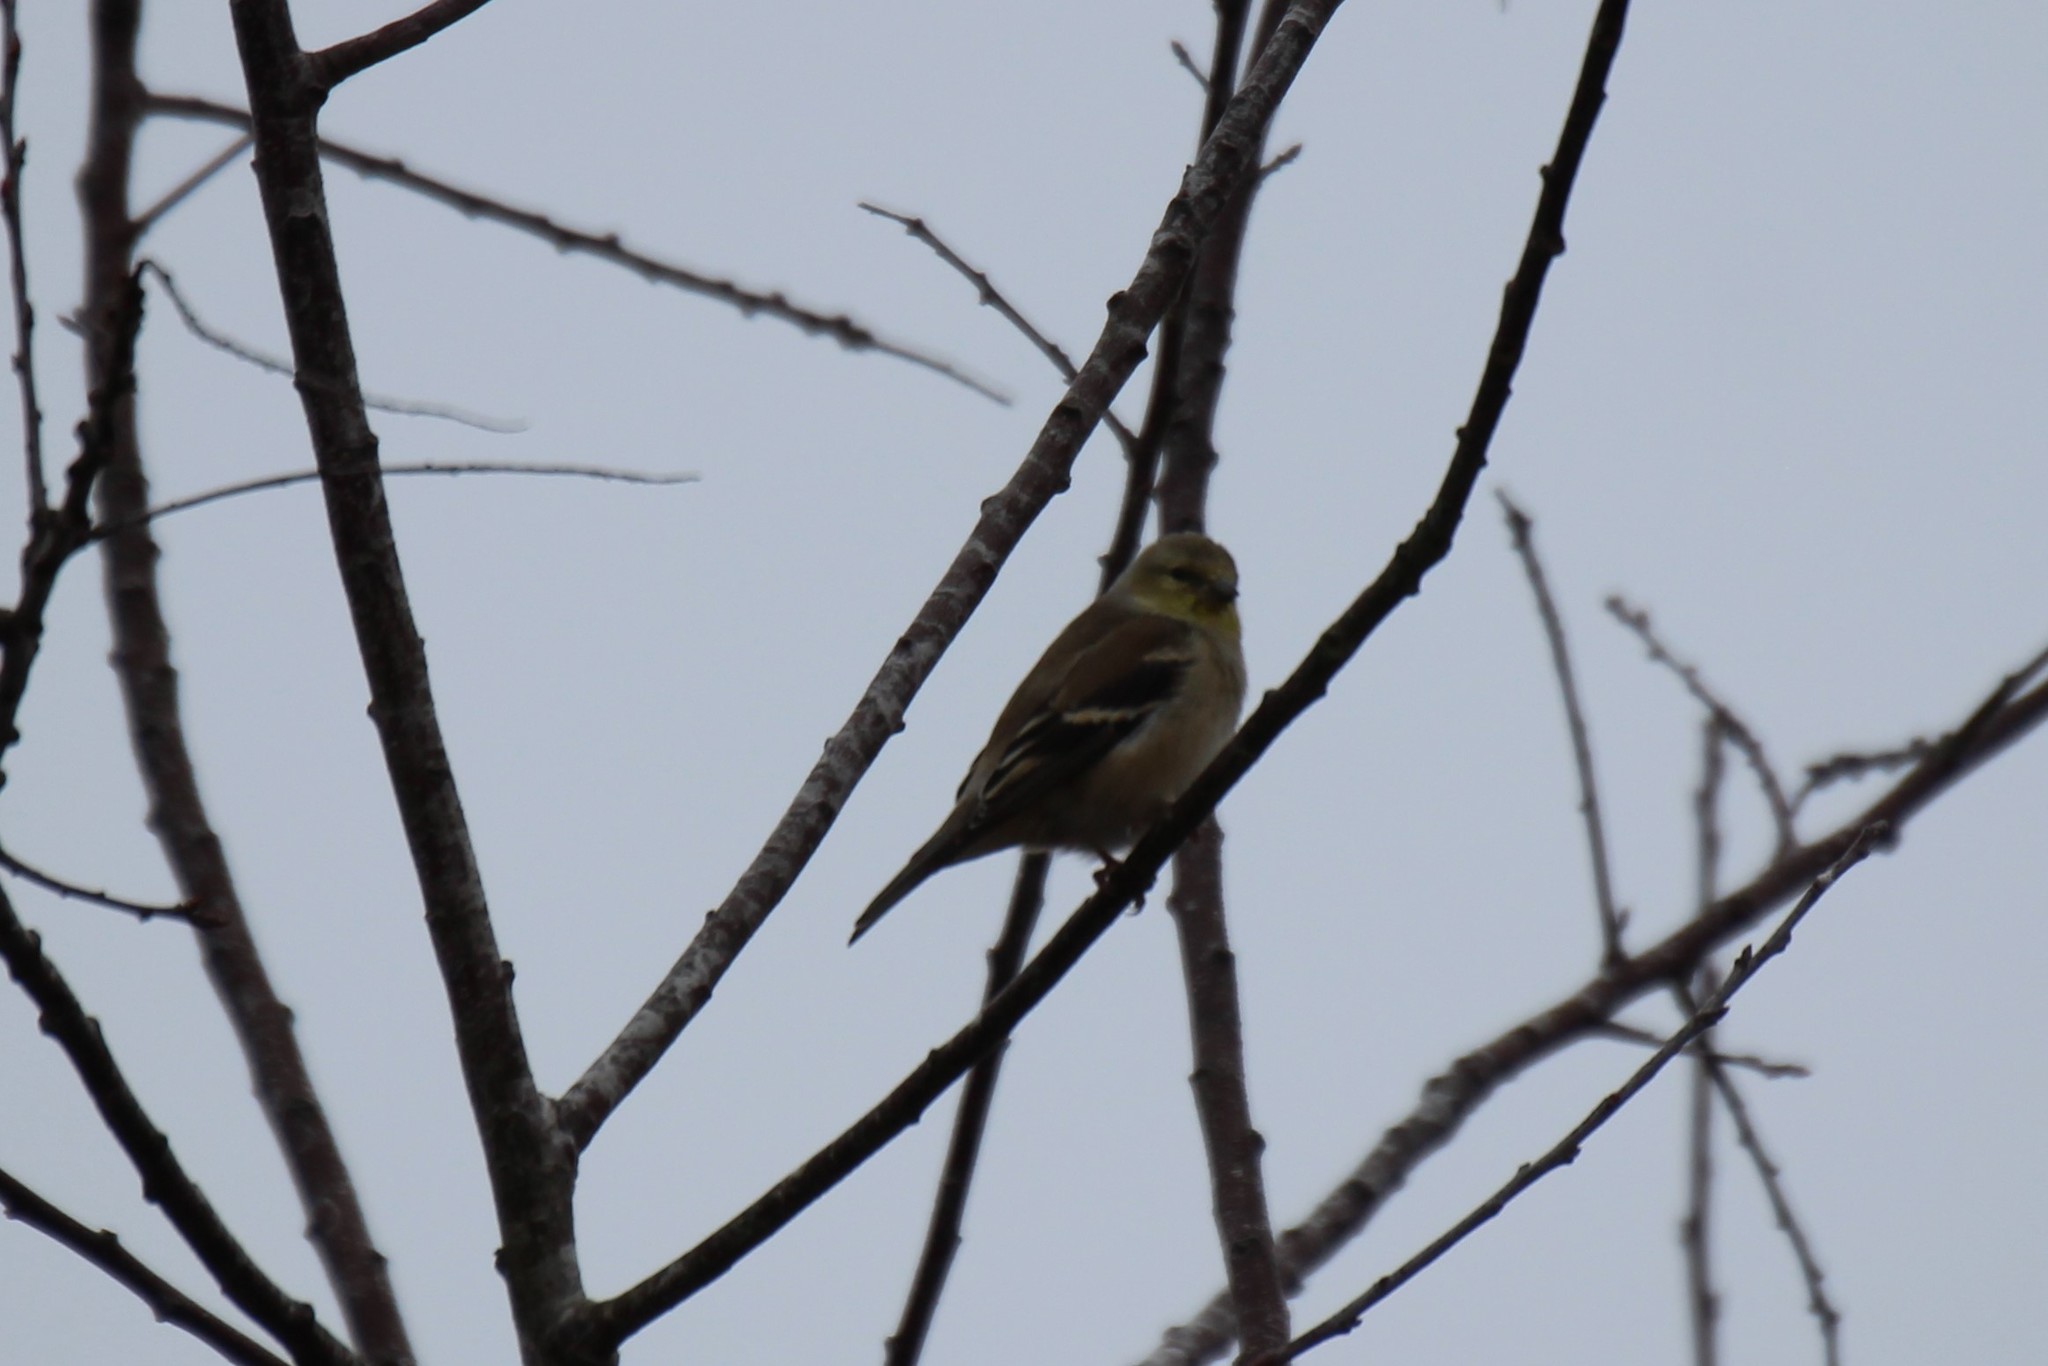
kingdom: Animalia
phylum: Chordata
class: Aves
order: Passeriformes
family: Fringillidae
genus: Spinus
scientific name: Spinus tristis
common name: American goldfinch
